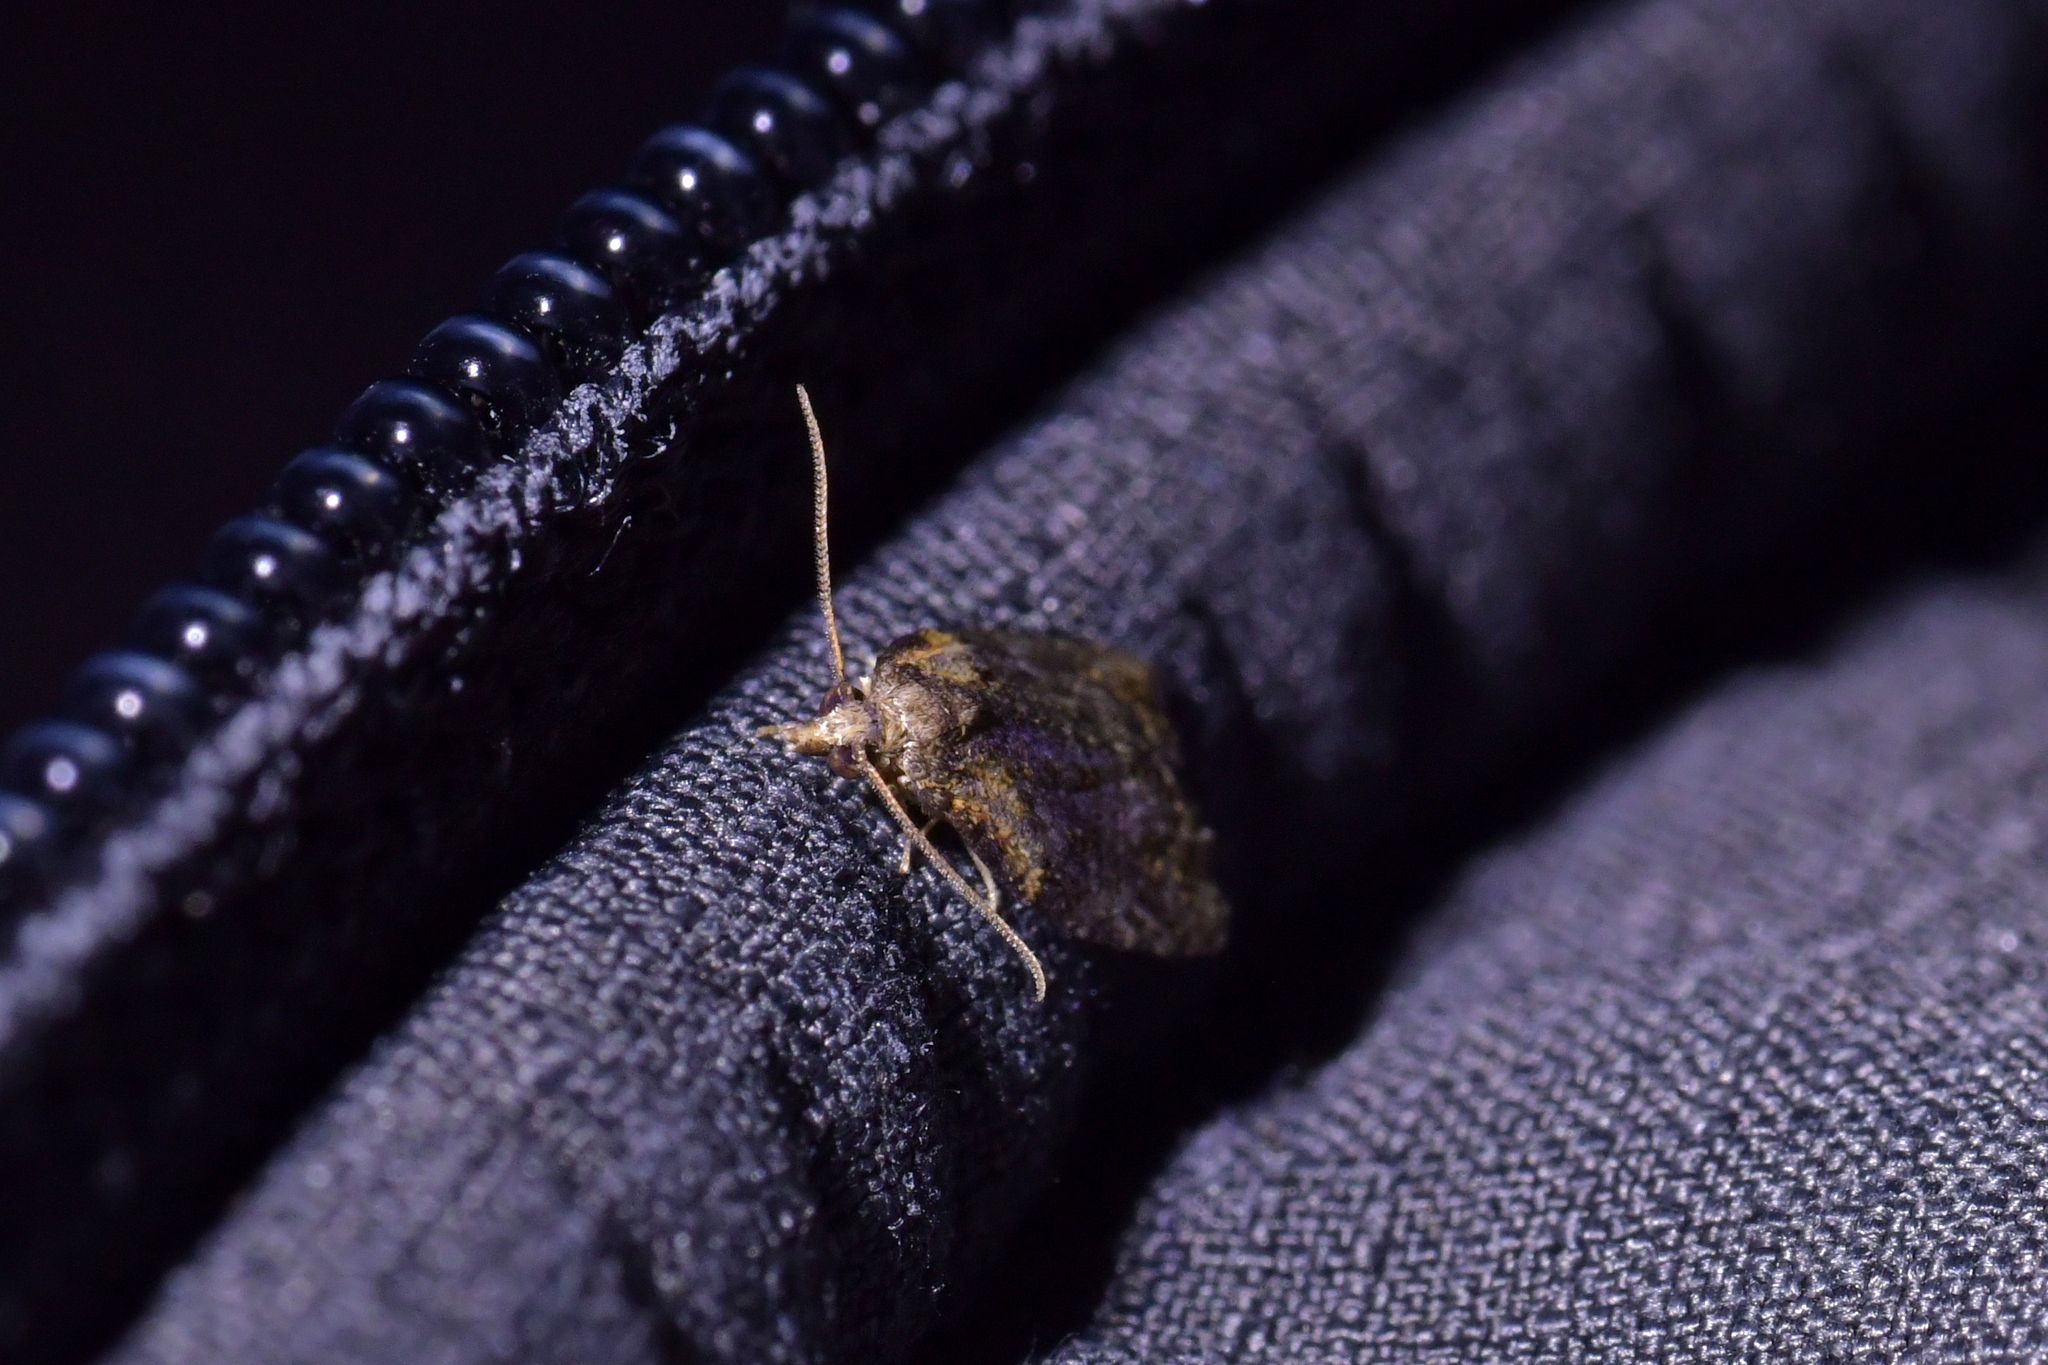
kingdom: Animalia
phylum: Arthropoda
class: Insecta
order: Lepidoptera
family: Tortricidae
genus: Capua
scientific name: Capua intractana
